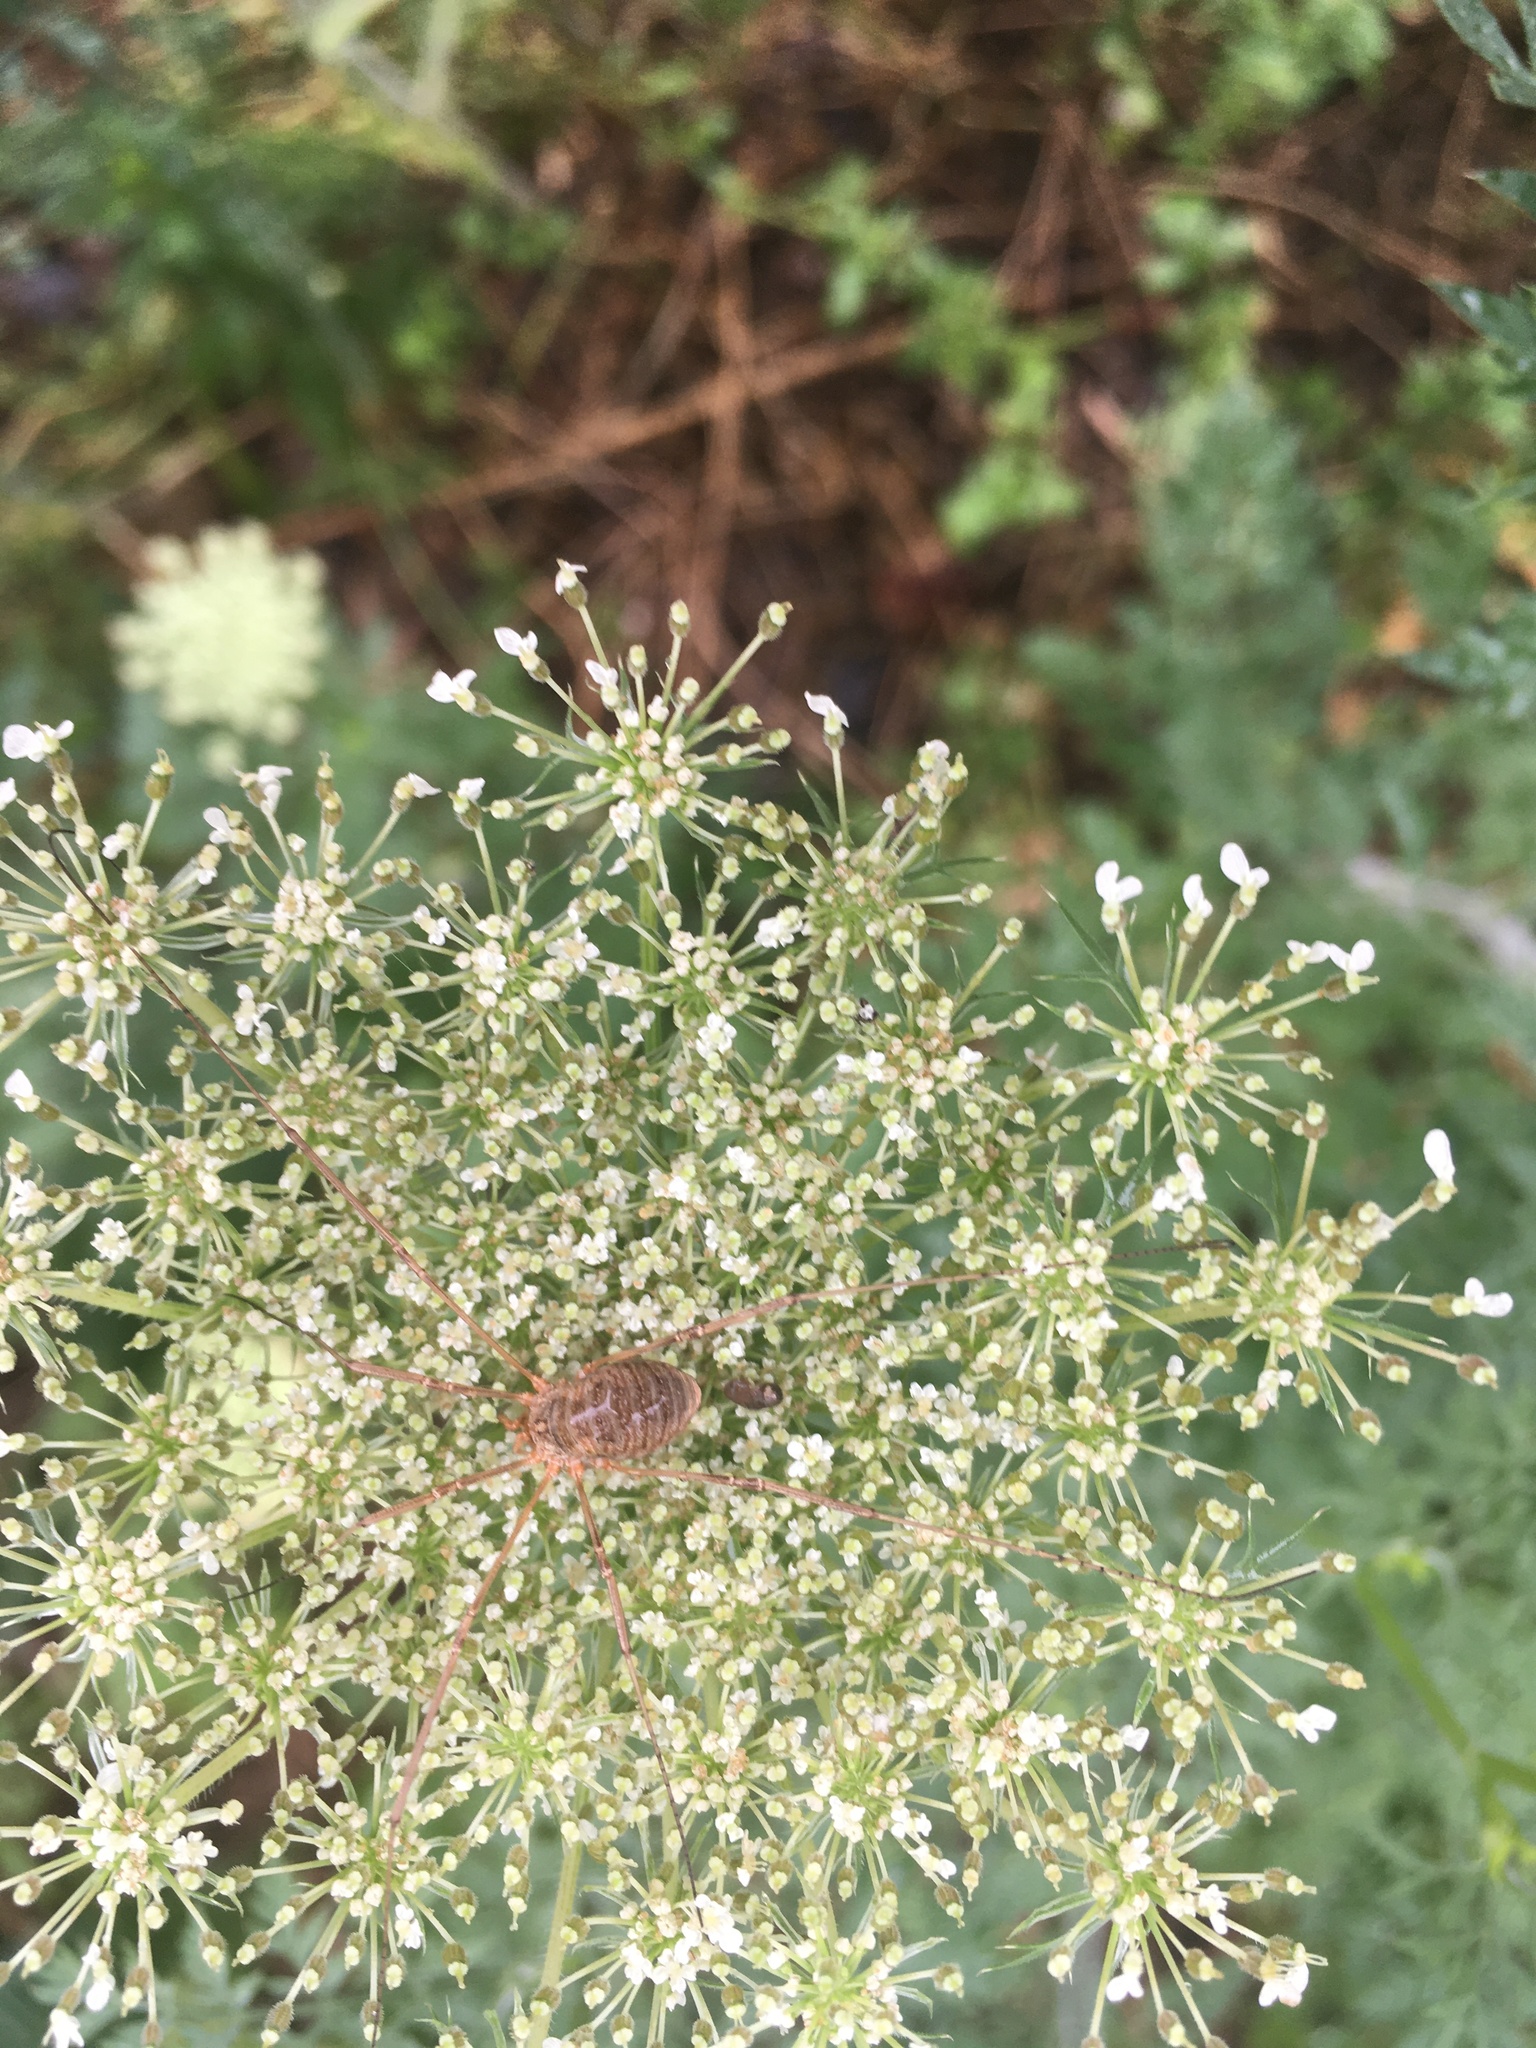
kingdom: Animalia
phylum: Arthropoda
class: Arachnida
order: Opiliones
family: Phalangiidae
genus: Phalangium
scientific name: Phalangium opilio
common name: Daddy longleg
